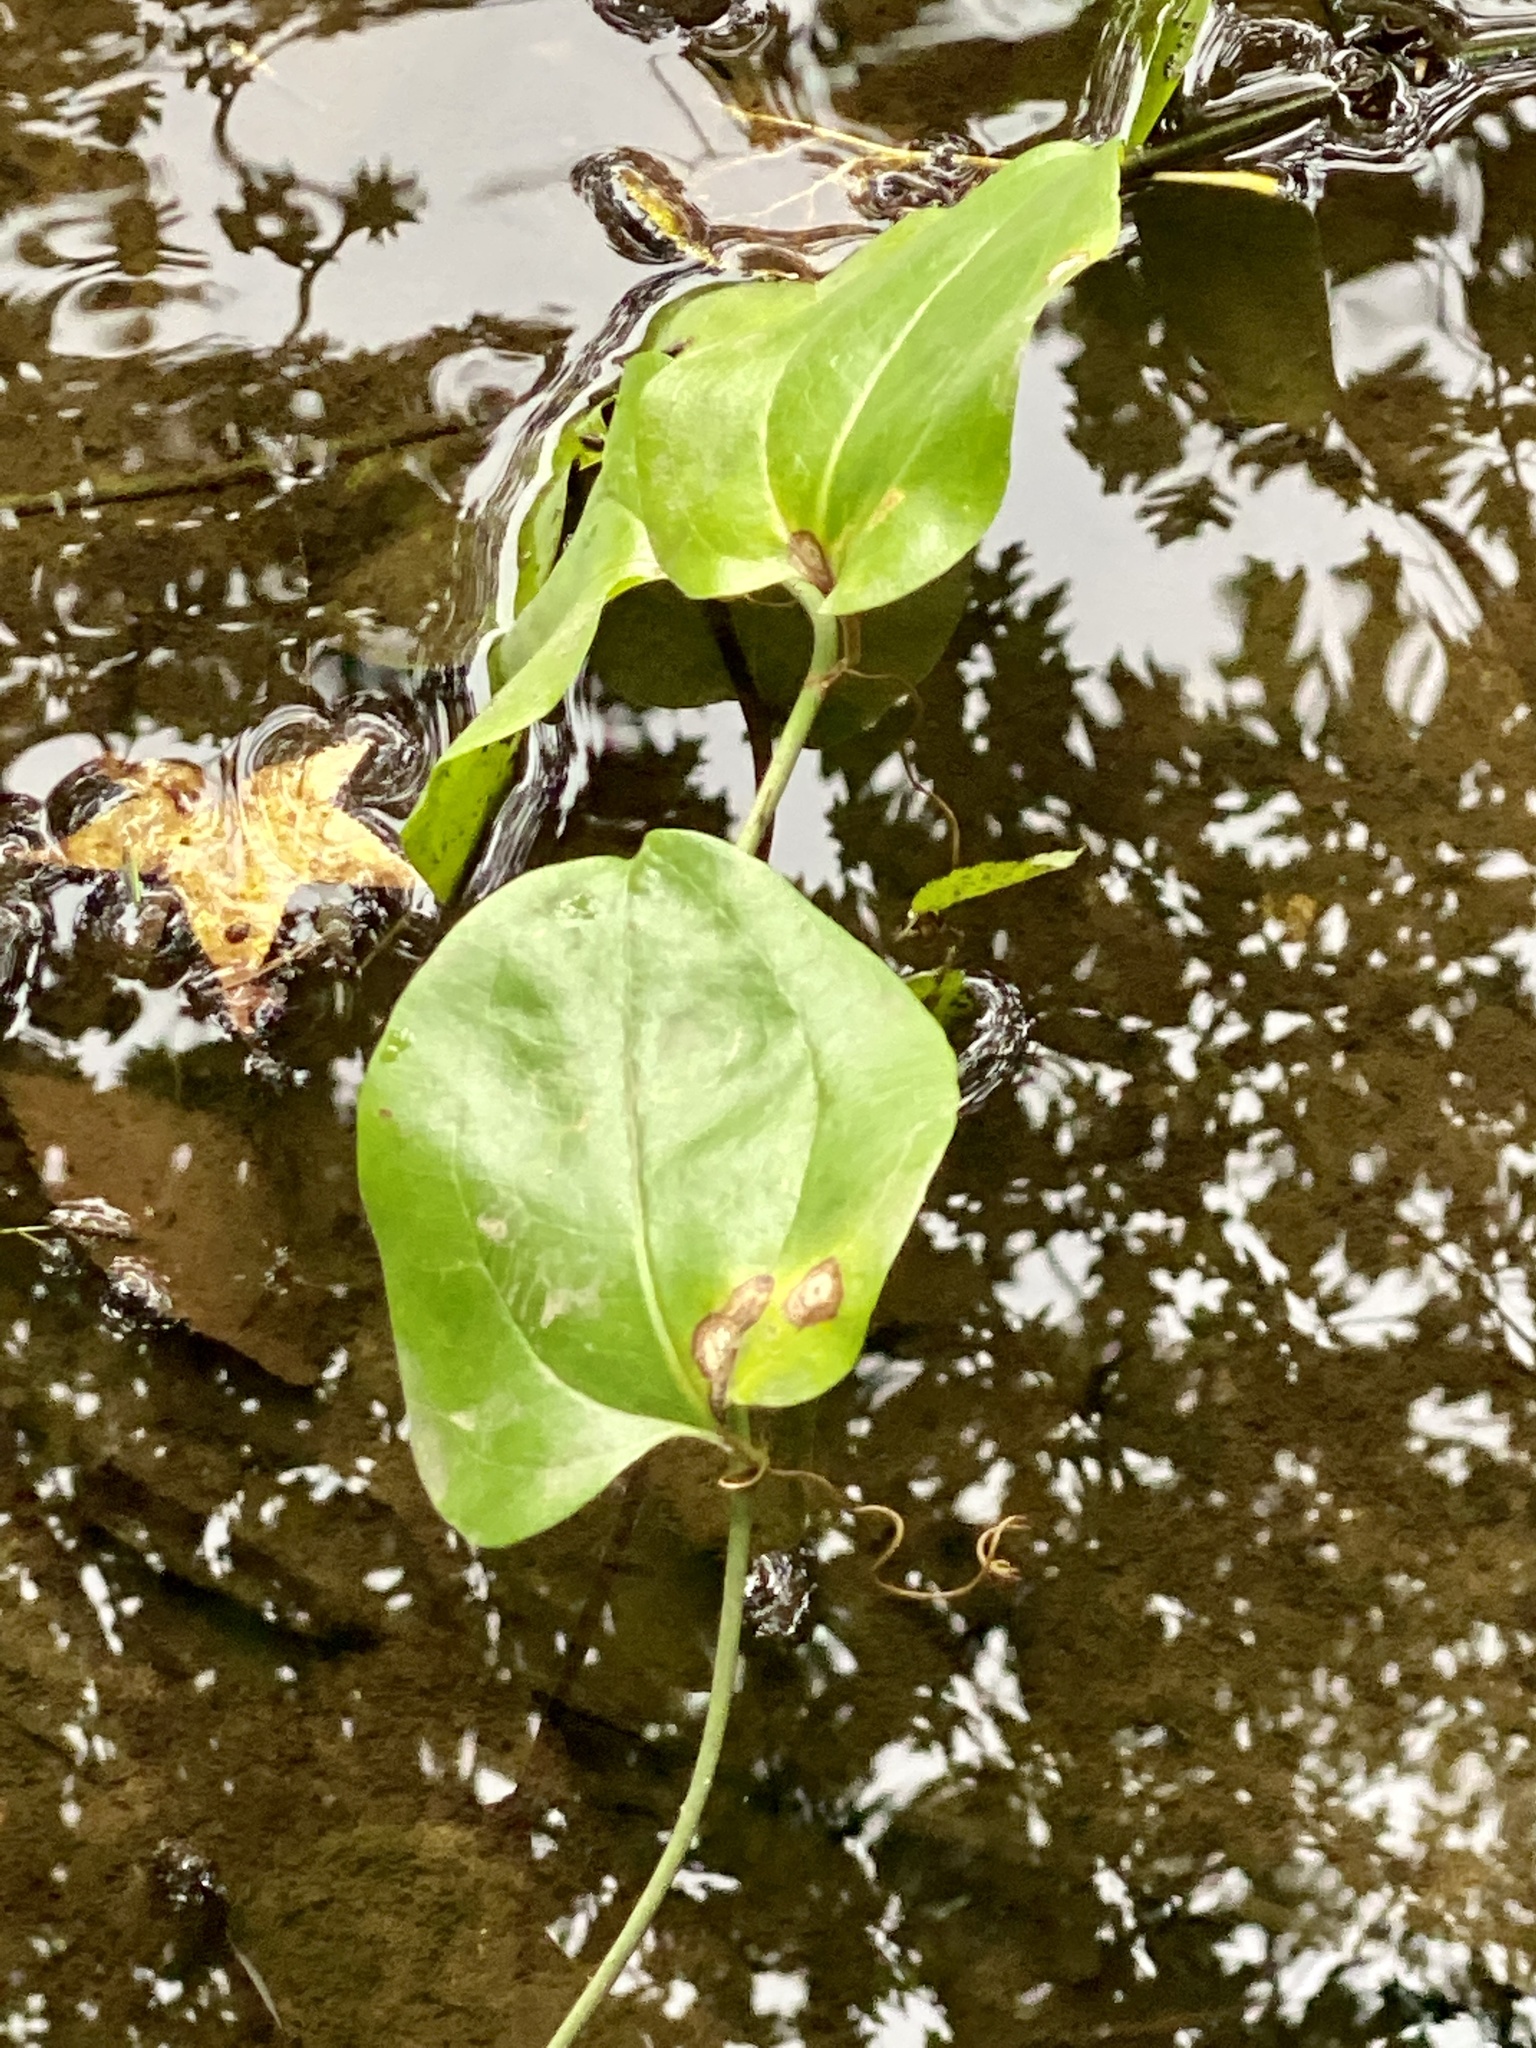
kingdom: Plantae
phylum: Tracheophyta
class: Liliopsida
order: Liliales
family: Smilacaceae
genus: Smilax
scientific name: Smilax rotundifolia
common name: Bullbriar
